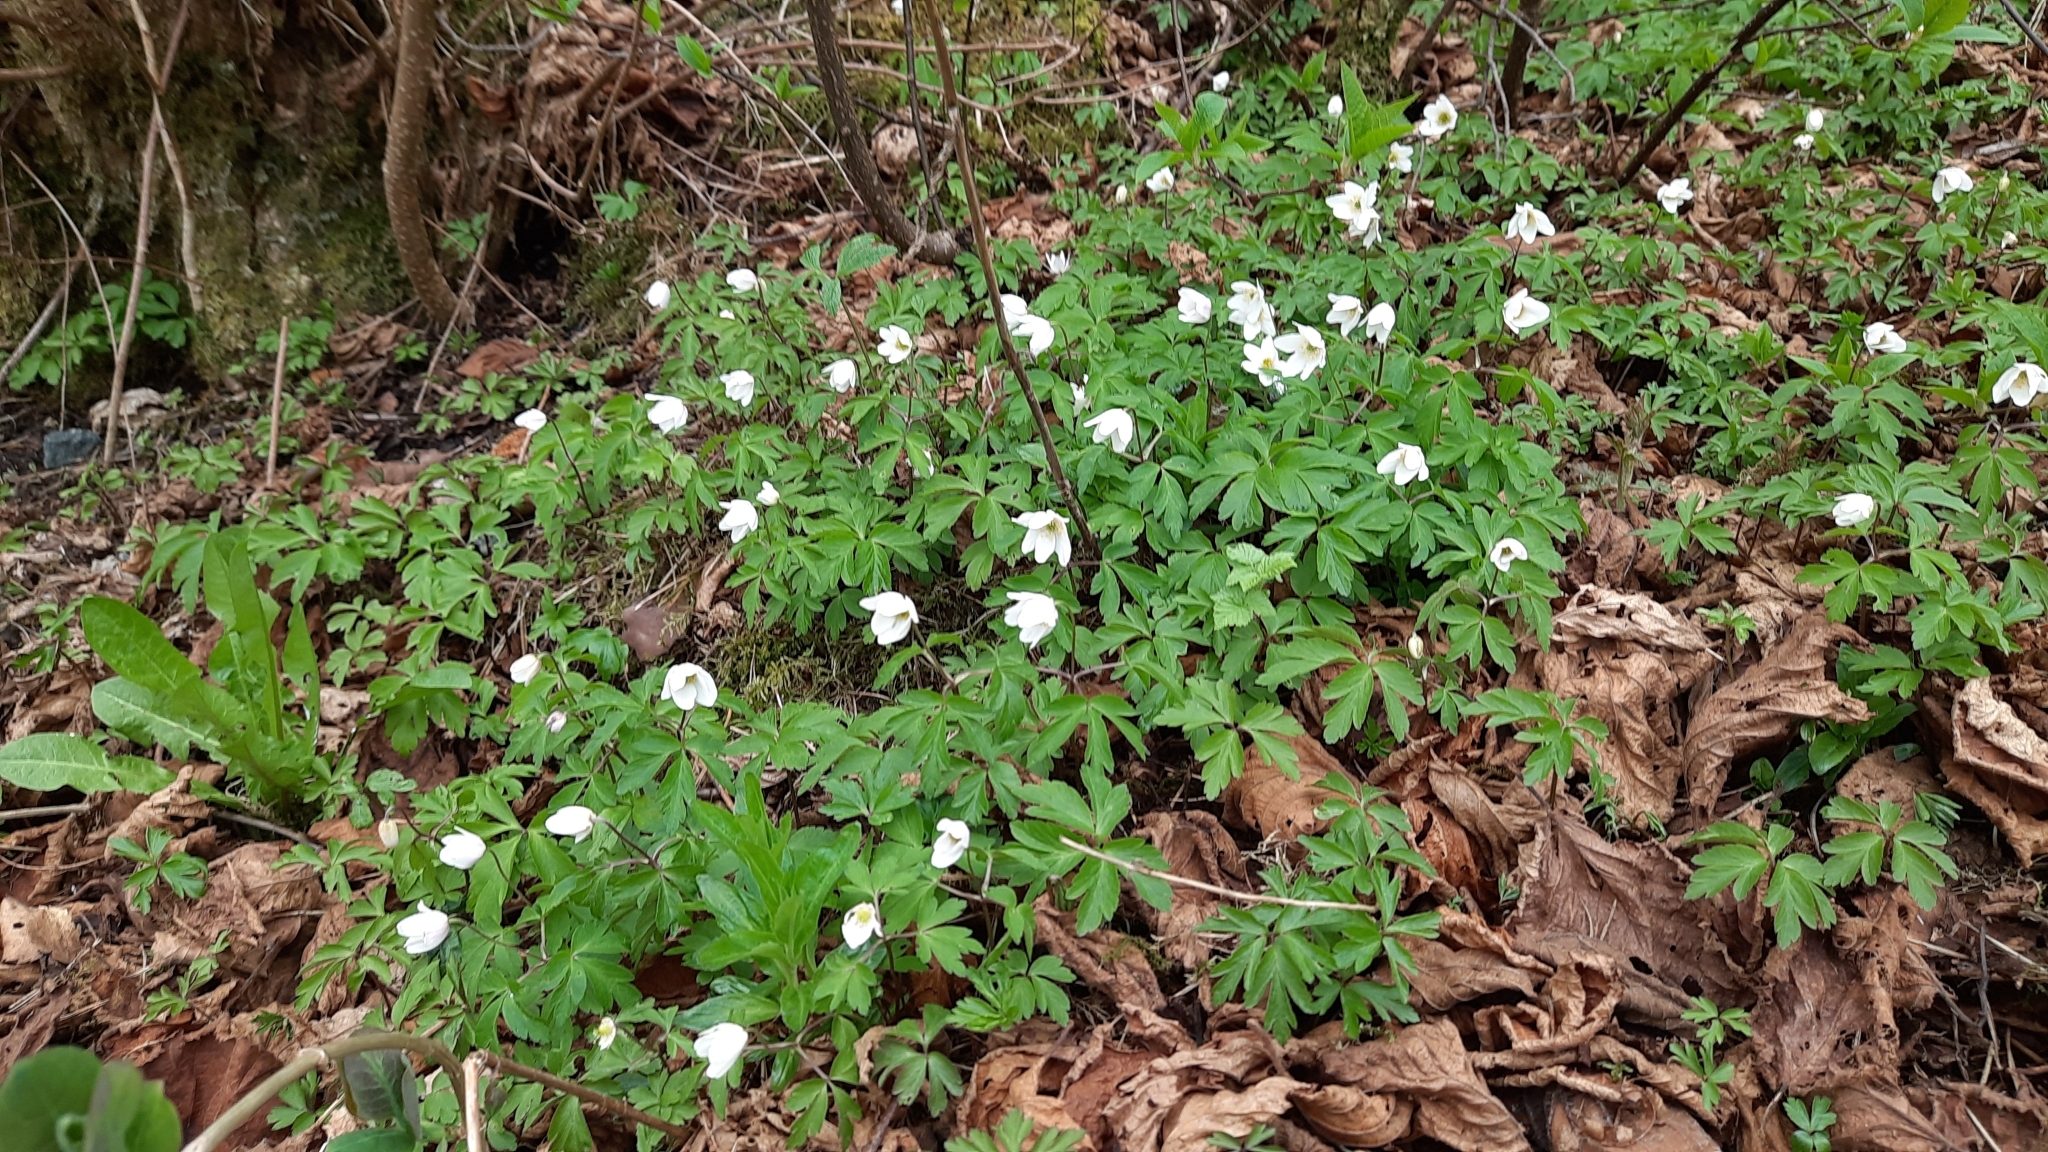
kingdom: Plantae
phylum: Tracheophyta
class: Magnoliopsida
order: Ranunculales
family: Ranunculaceae
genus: Anemone
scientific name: Anemone nemorosa
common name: Wood anemone
